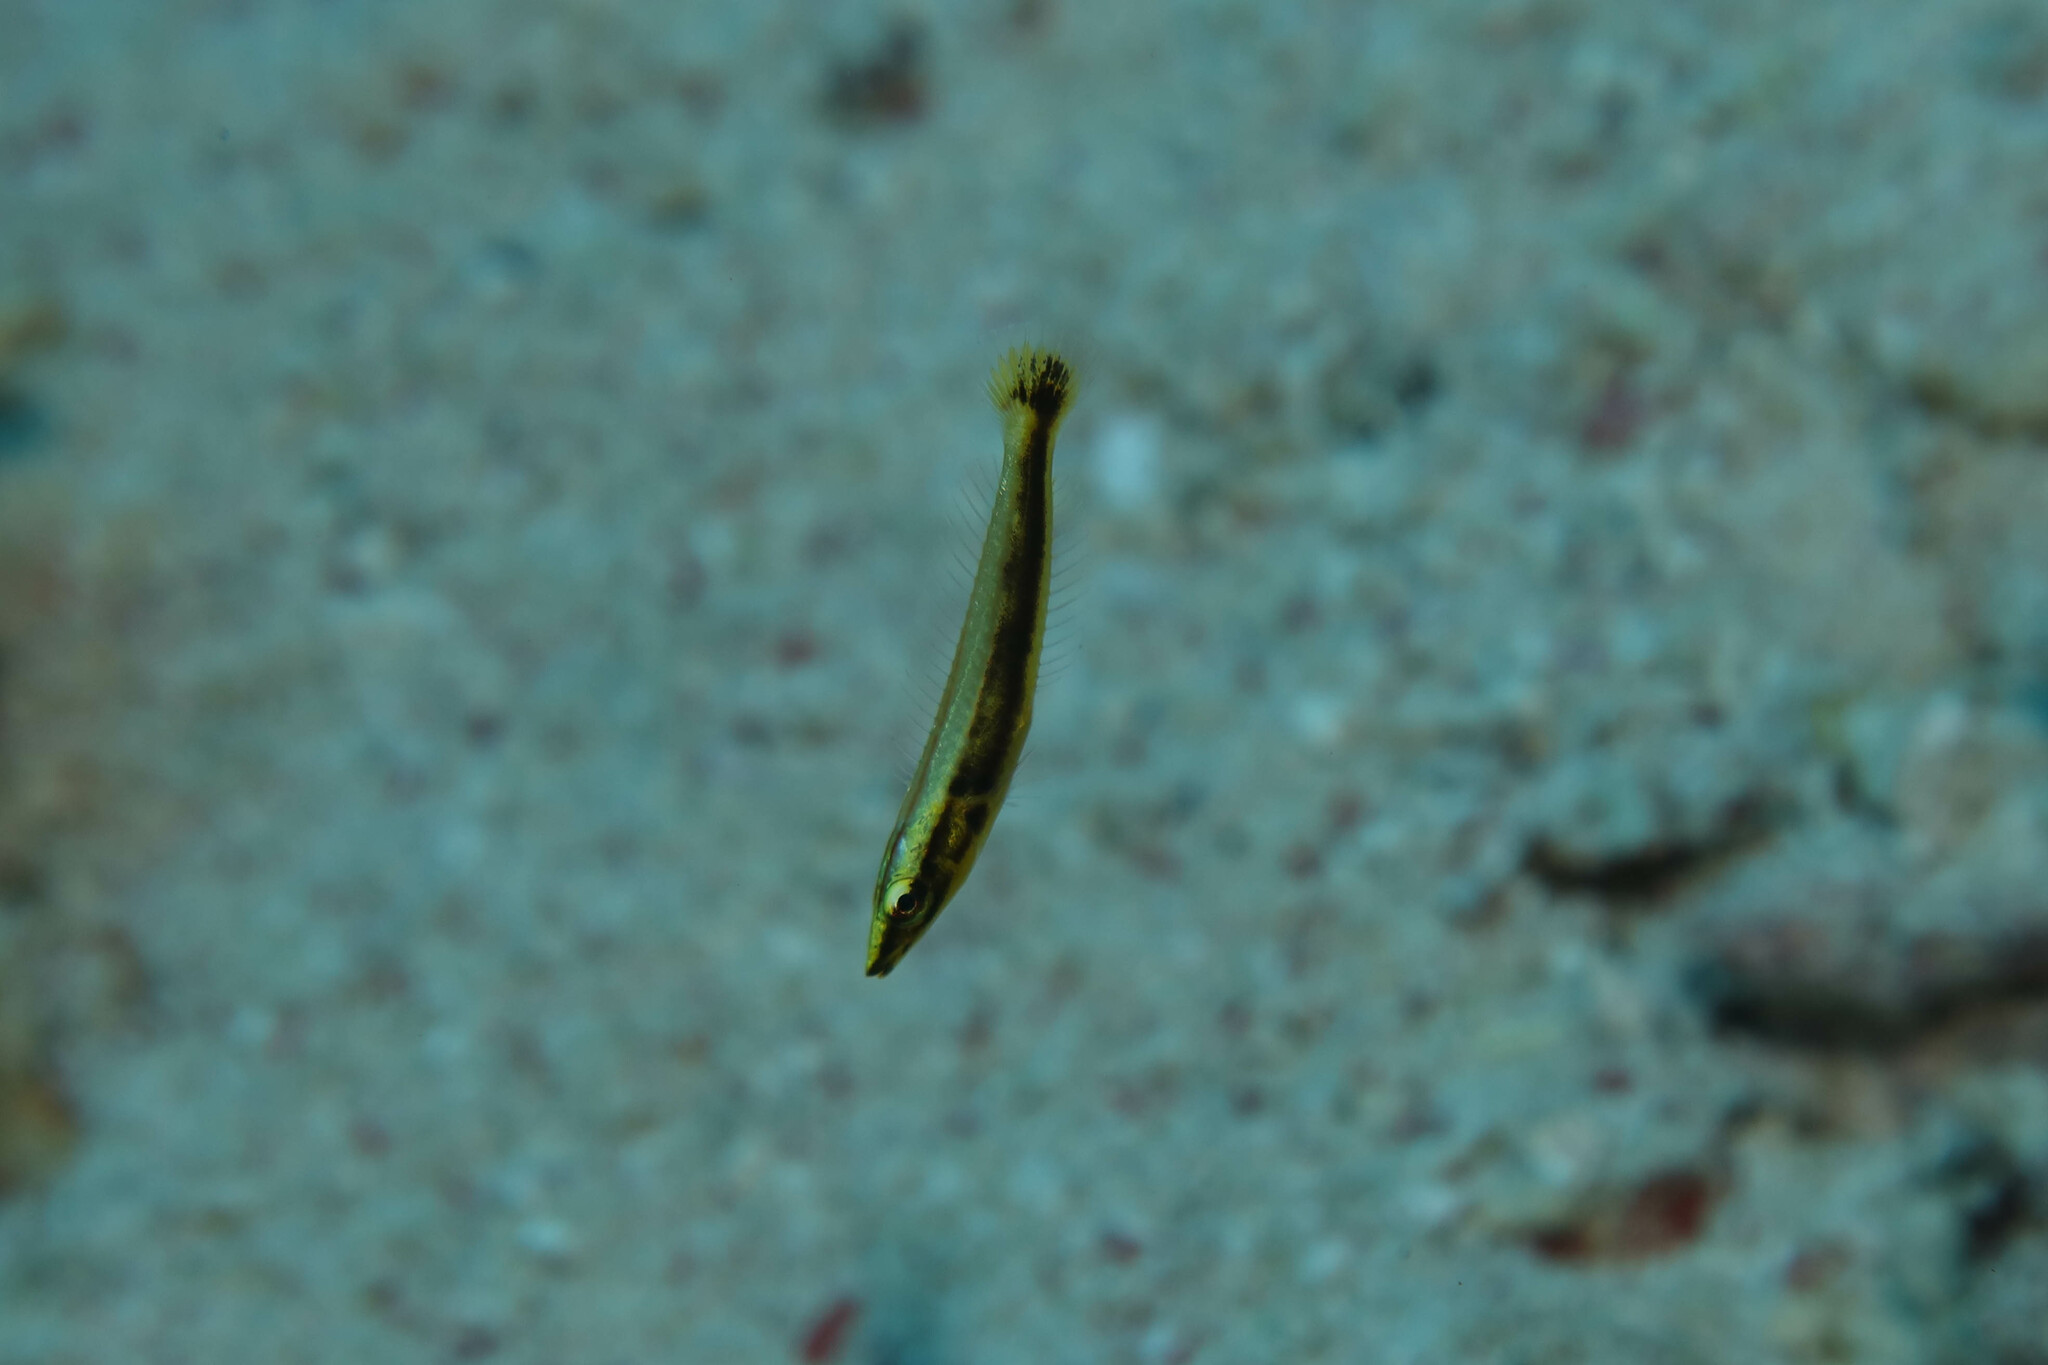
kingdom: Animalia
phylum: Chordata
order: Perciformes
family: Labridae
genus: Hologymnosus
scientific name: Hologymnosus annulatus
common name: Ring wrasse
